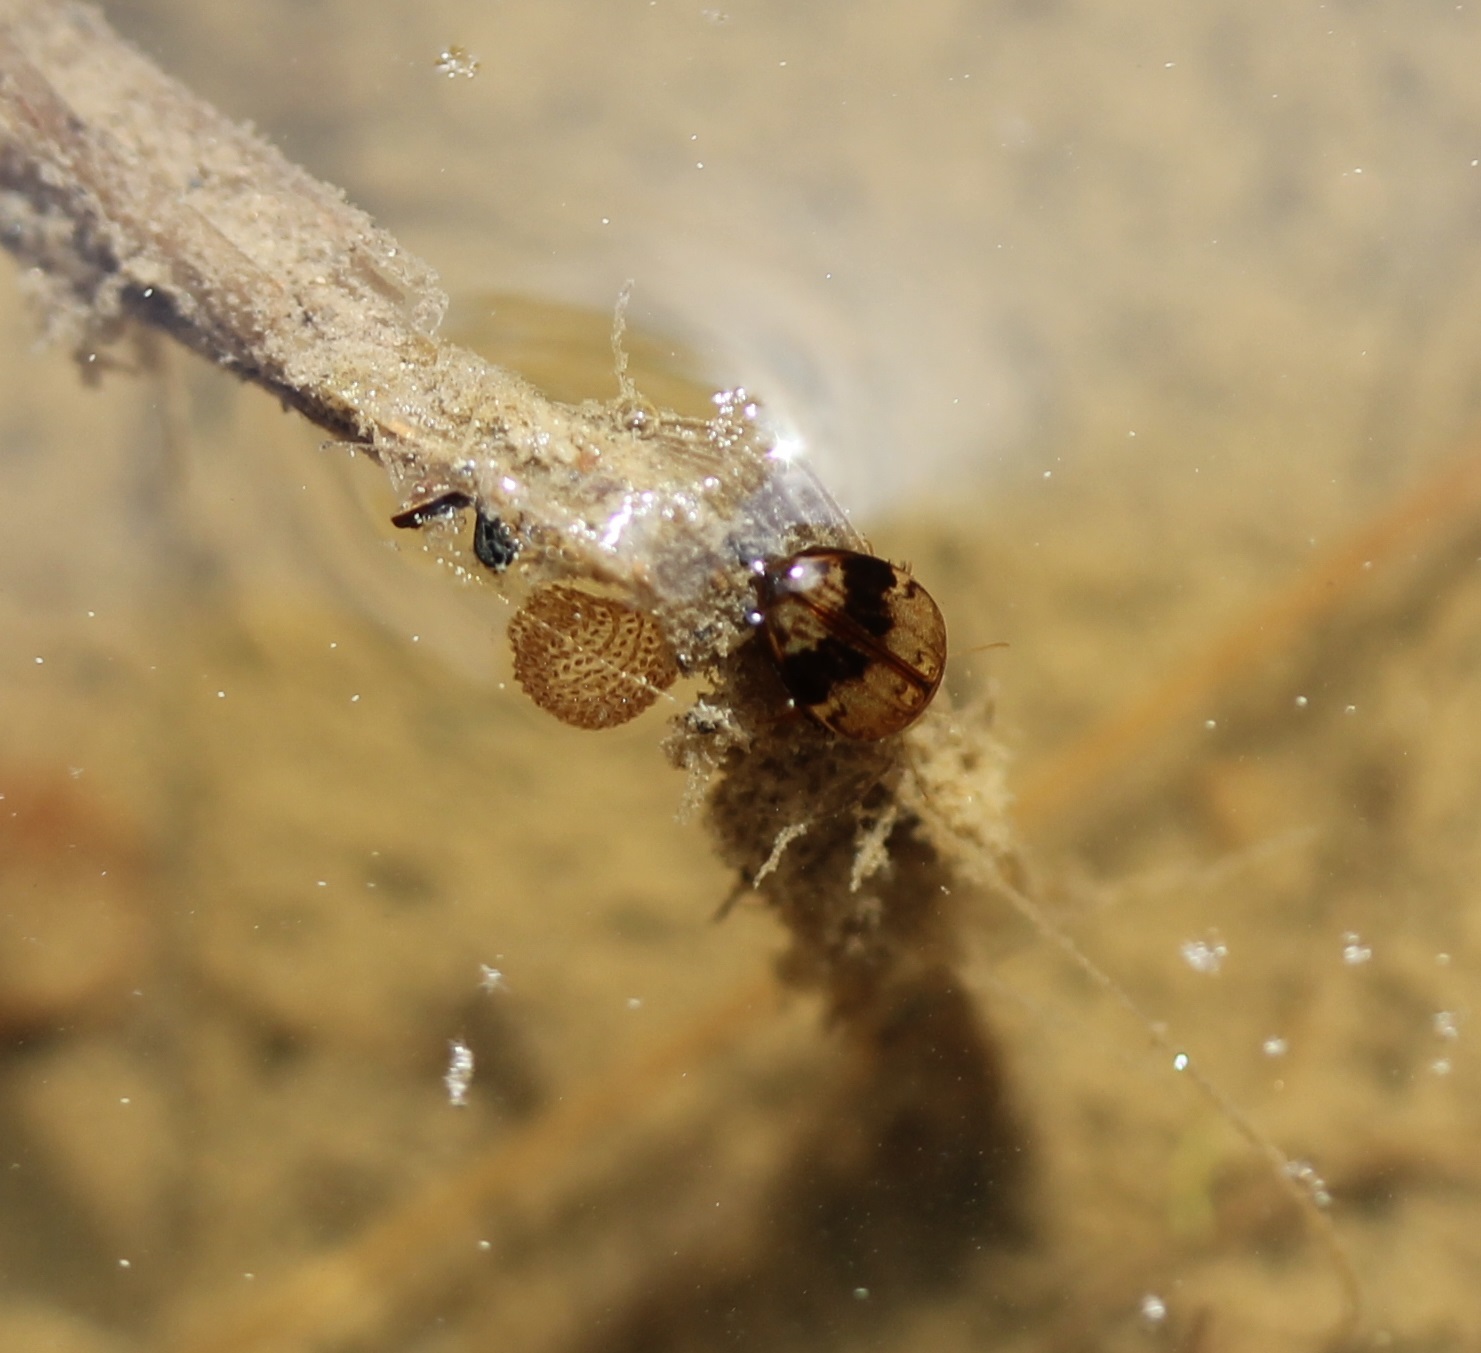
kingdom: Animalia
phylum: Arthropoda
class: Insecta
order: Coleoptera
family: Dytiscidae
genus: Laccophilus
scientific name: Laccophilus fasciatus
